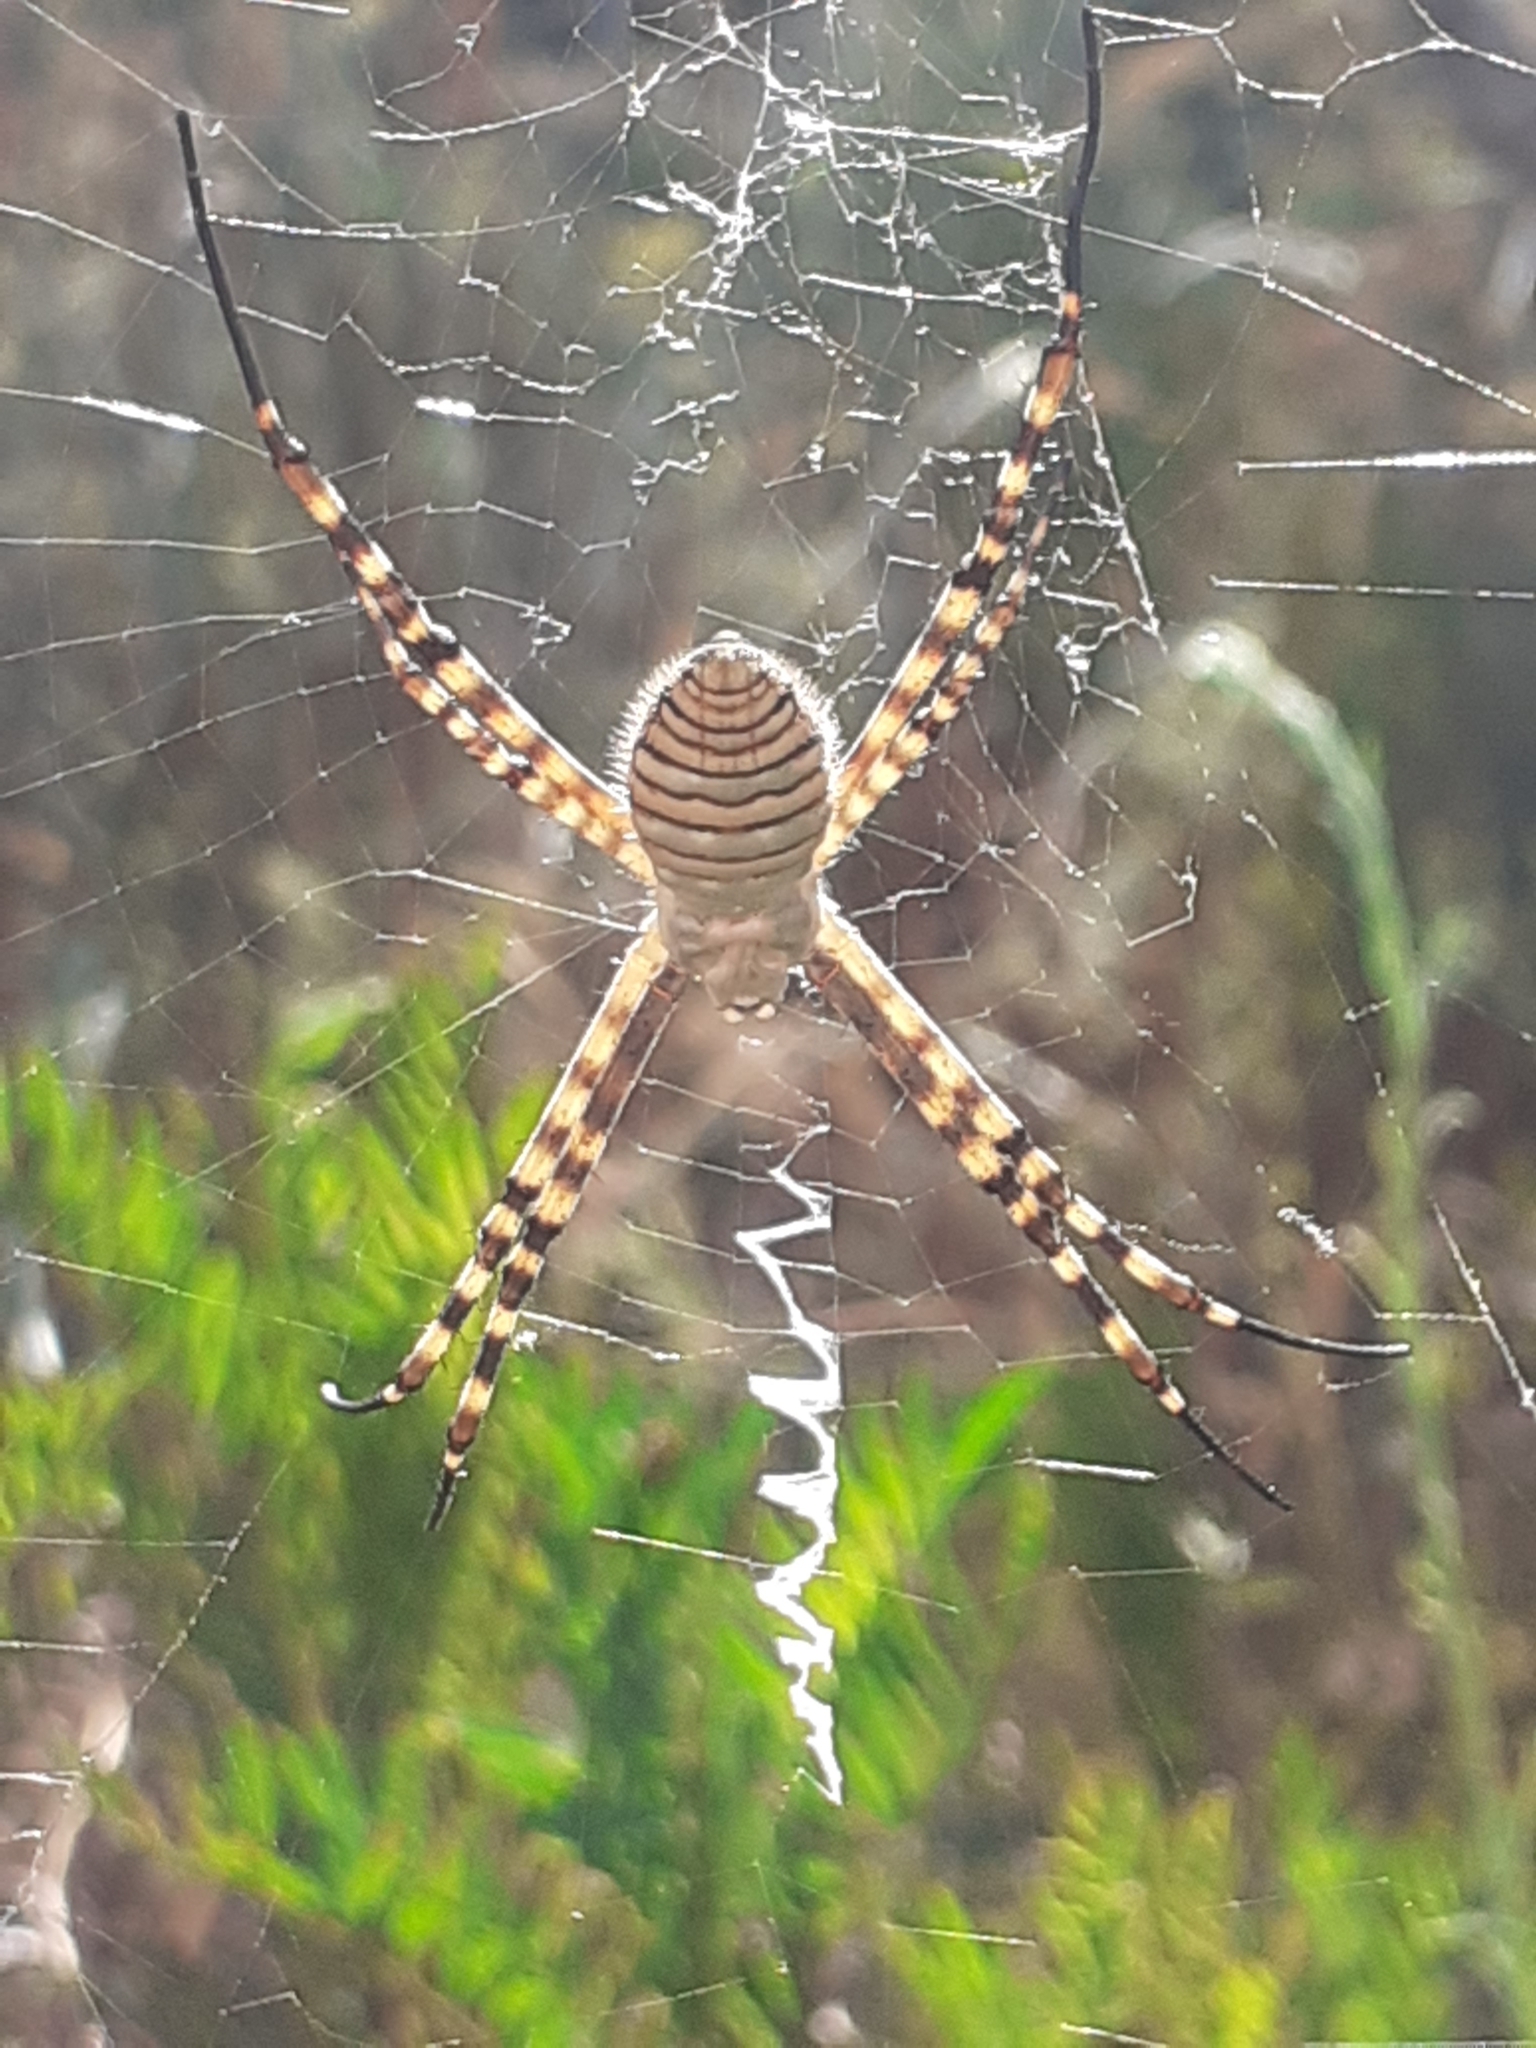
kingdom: Animalia
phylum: Arthropoda
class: Arachnida
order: Araneae
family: Araneidae
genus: Argiope
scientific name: Argiope trifasciata
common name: Banded garden spider
